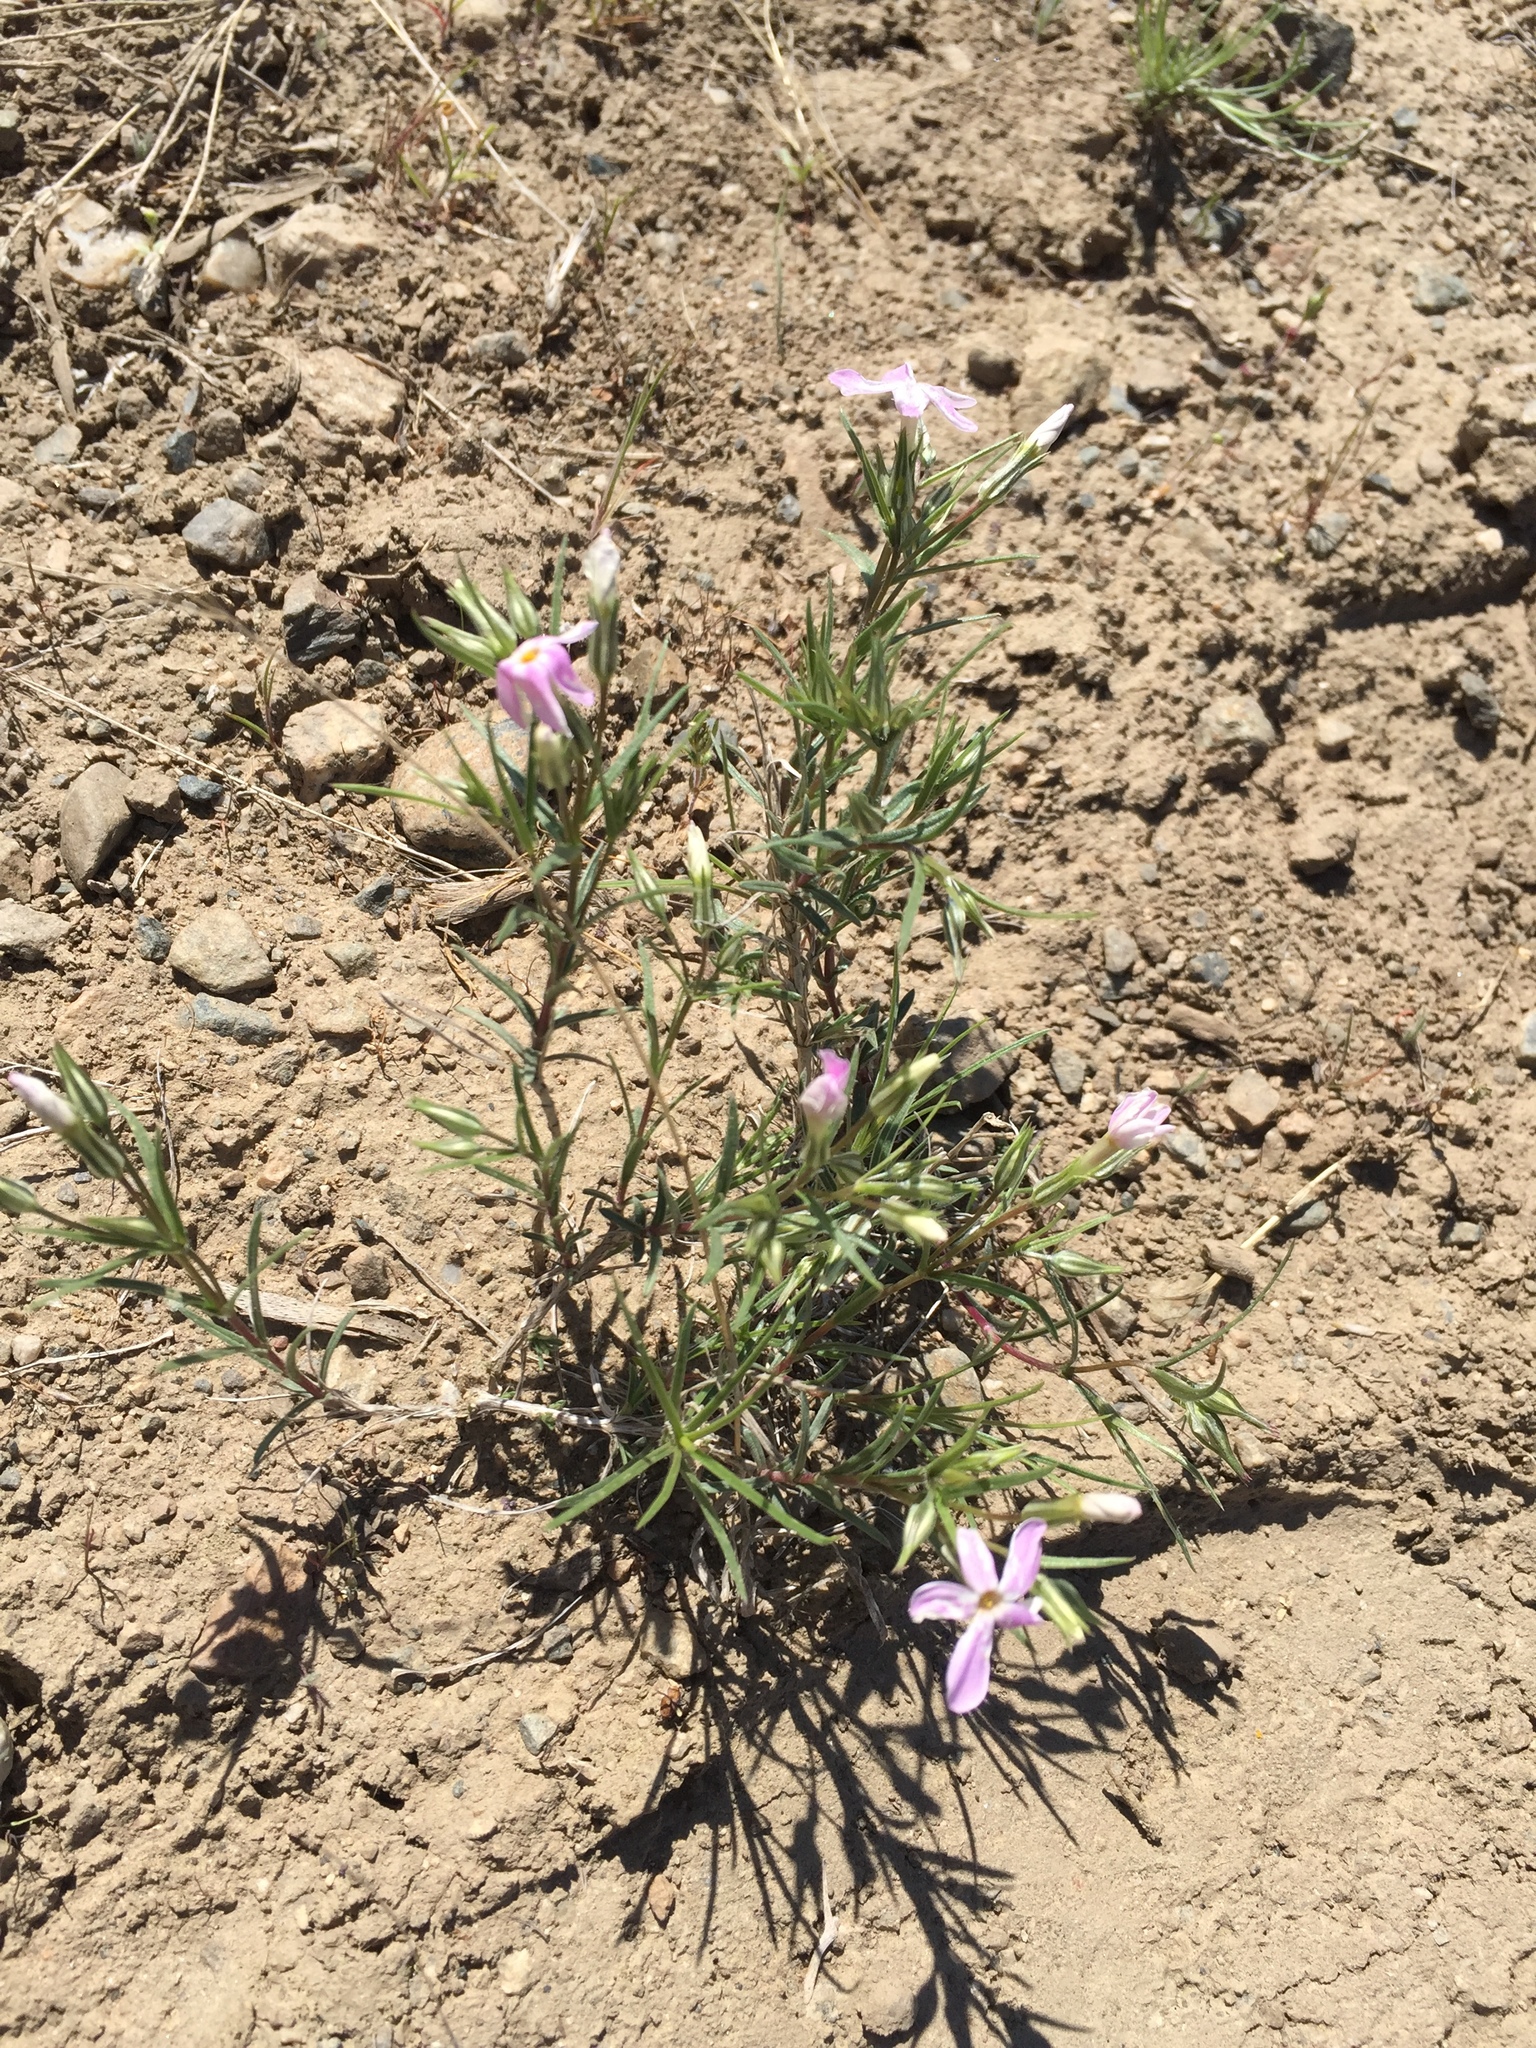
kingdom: Plantae
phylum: Tracheophyta
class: Magnoliopsida
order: Ericales
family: Polemoniaceae
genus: Phlox
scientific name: Phlox longifolia
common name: Longleaf phlox
